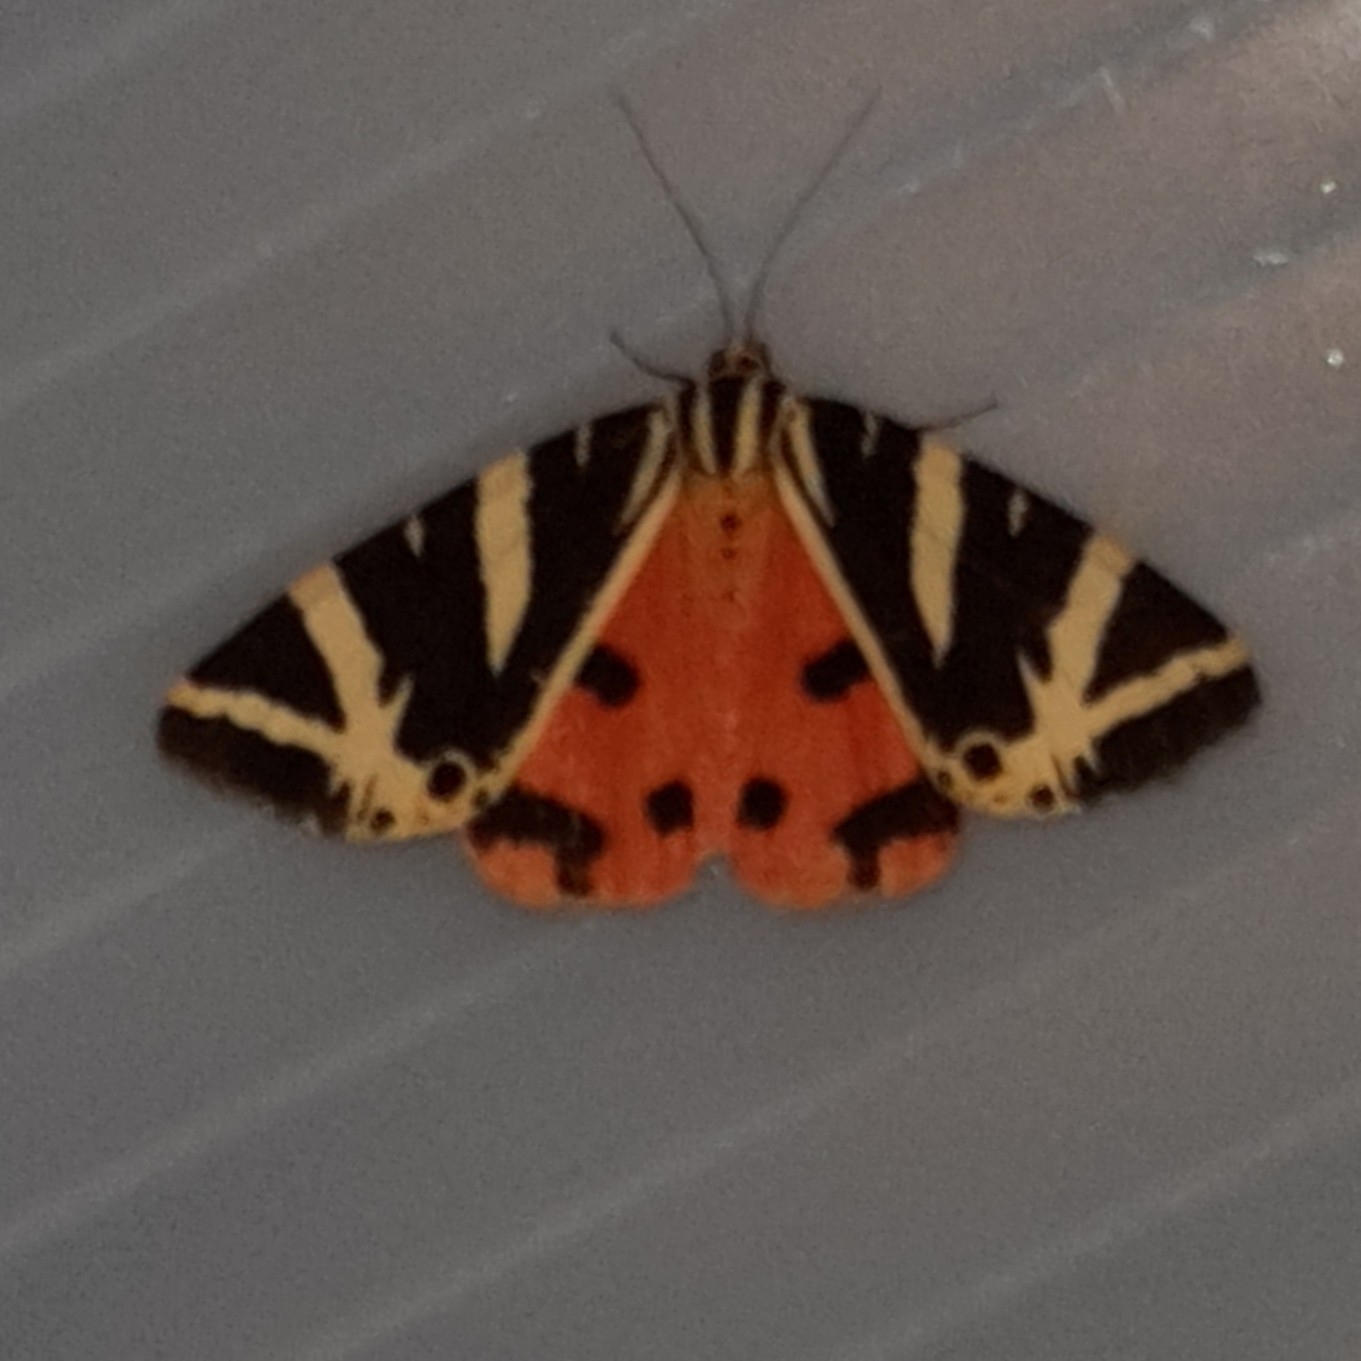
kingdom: Animalia
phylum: Arthropoda
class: Insecta
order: Lepidoptera
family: Erebidae
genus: Euplagia
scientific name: Euplagia quadripunctaria
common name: Jersey tiger
